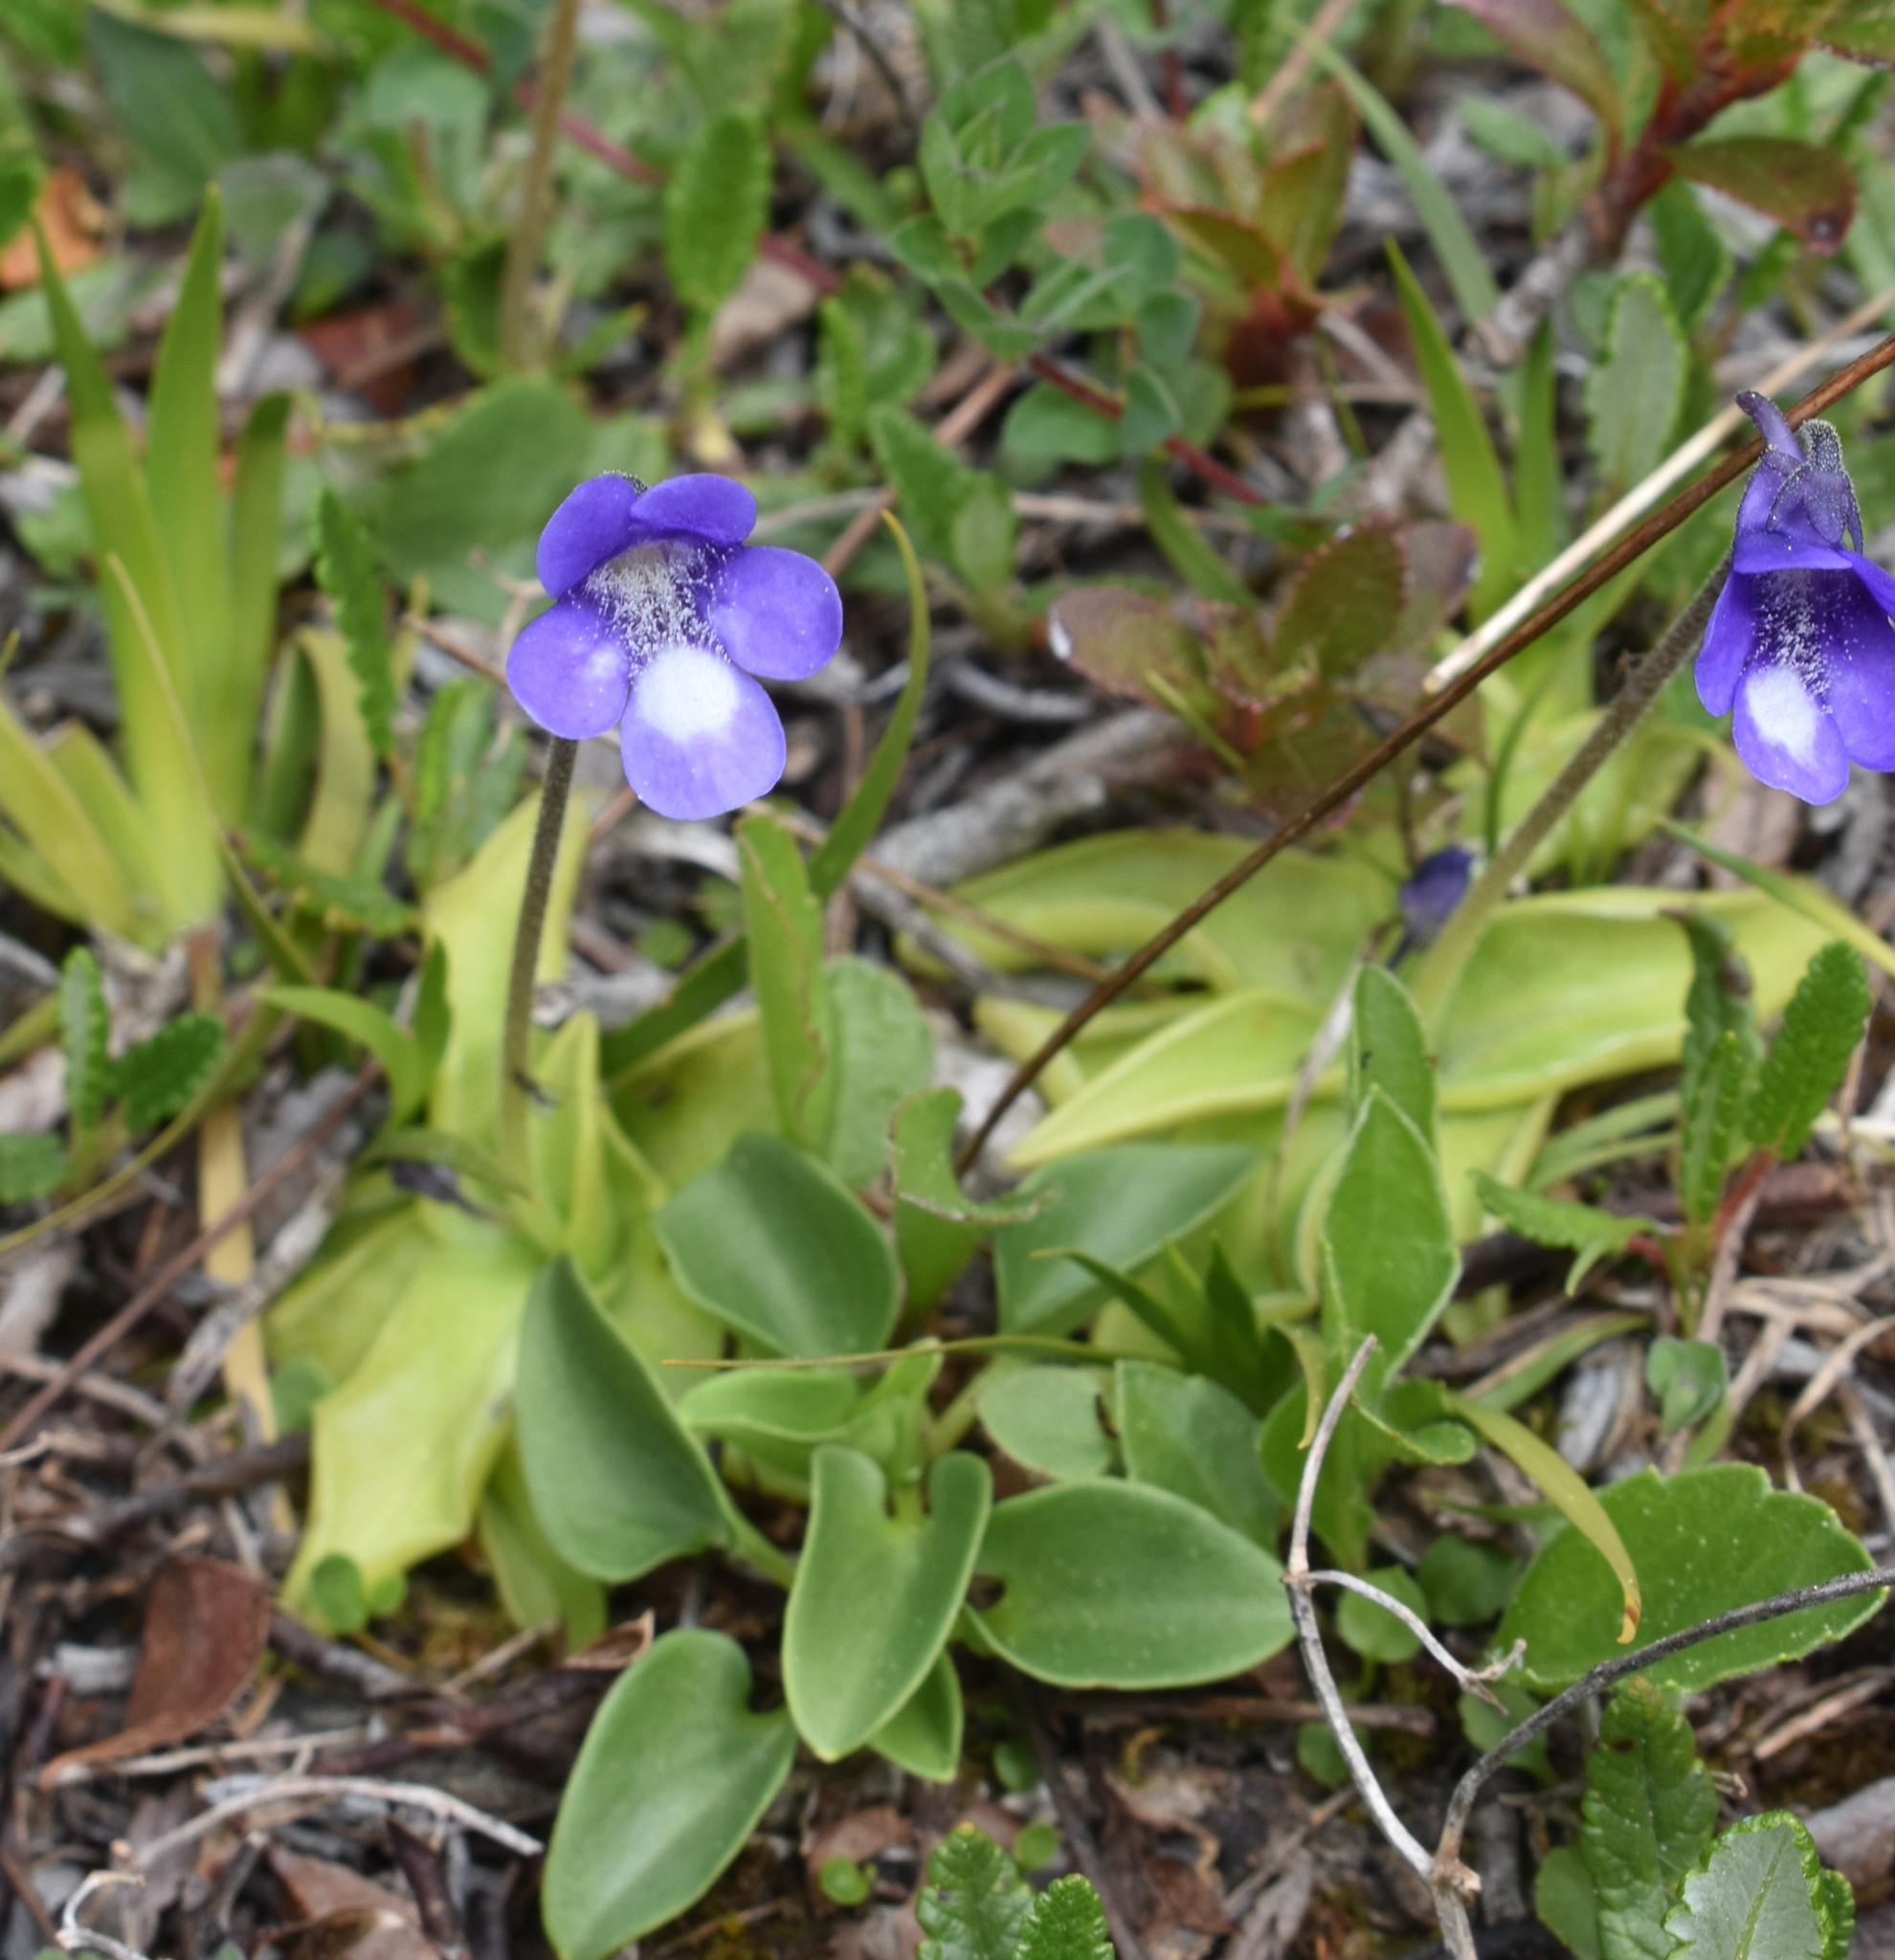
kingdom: Plantae
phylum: Tracheophyta
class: Magnoliopsida
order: Lamiales
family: Lentibulariaceae
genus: Pinguicula
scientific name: Pinguicula leptoceras
